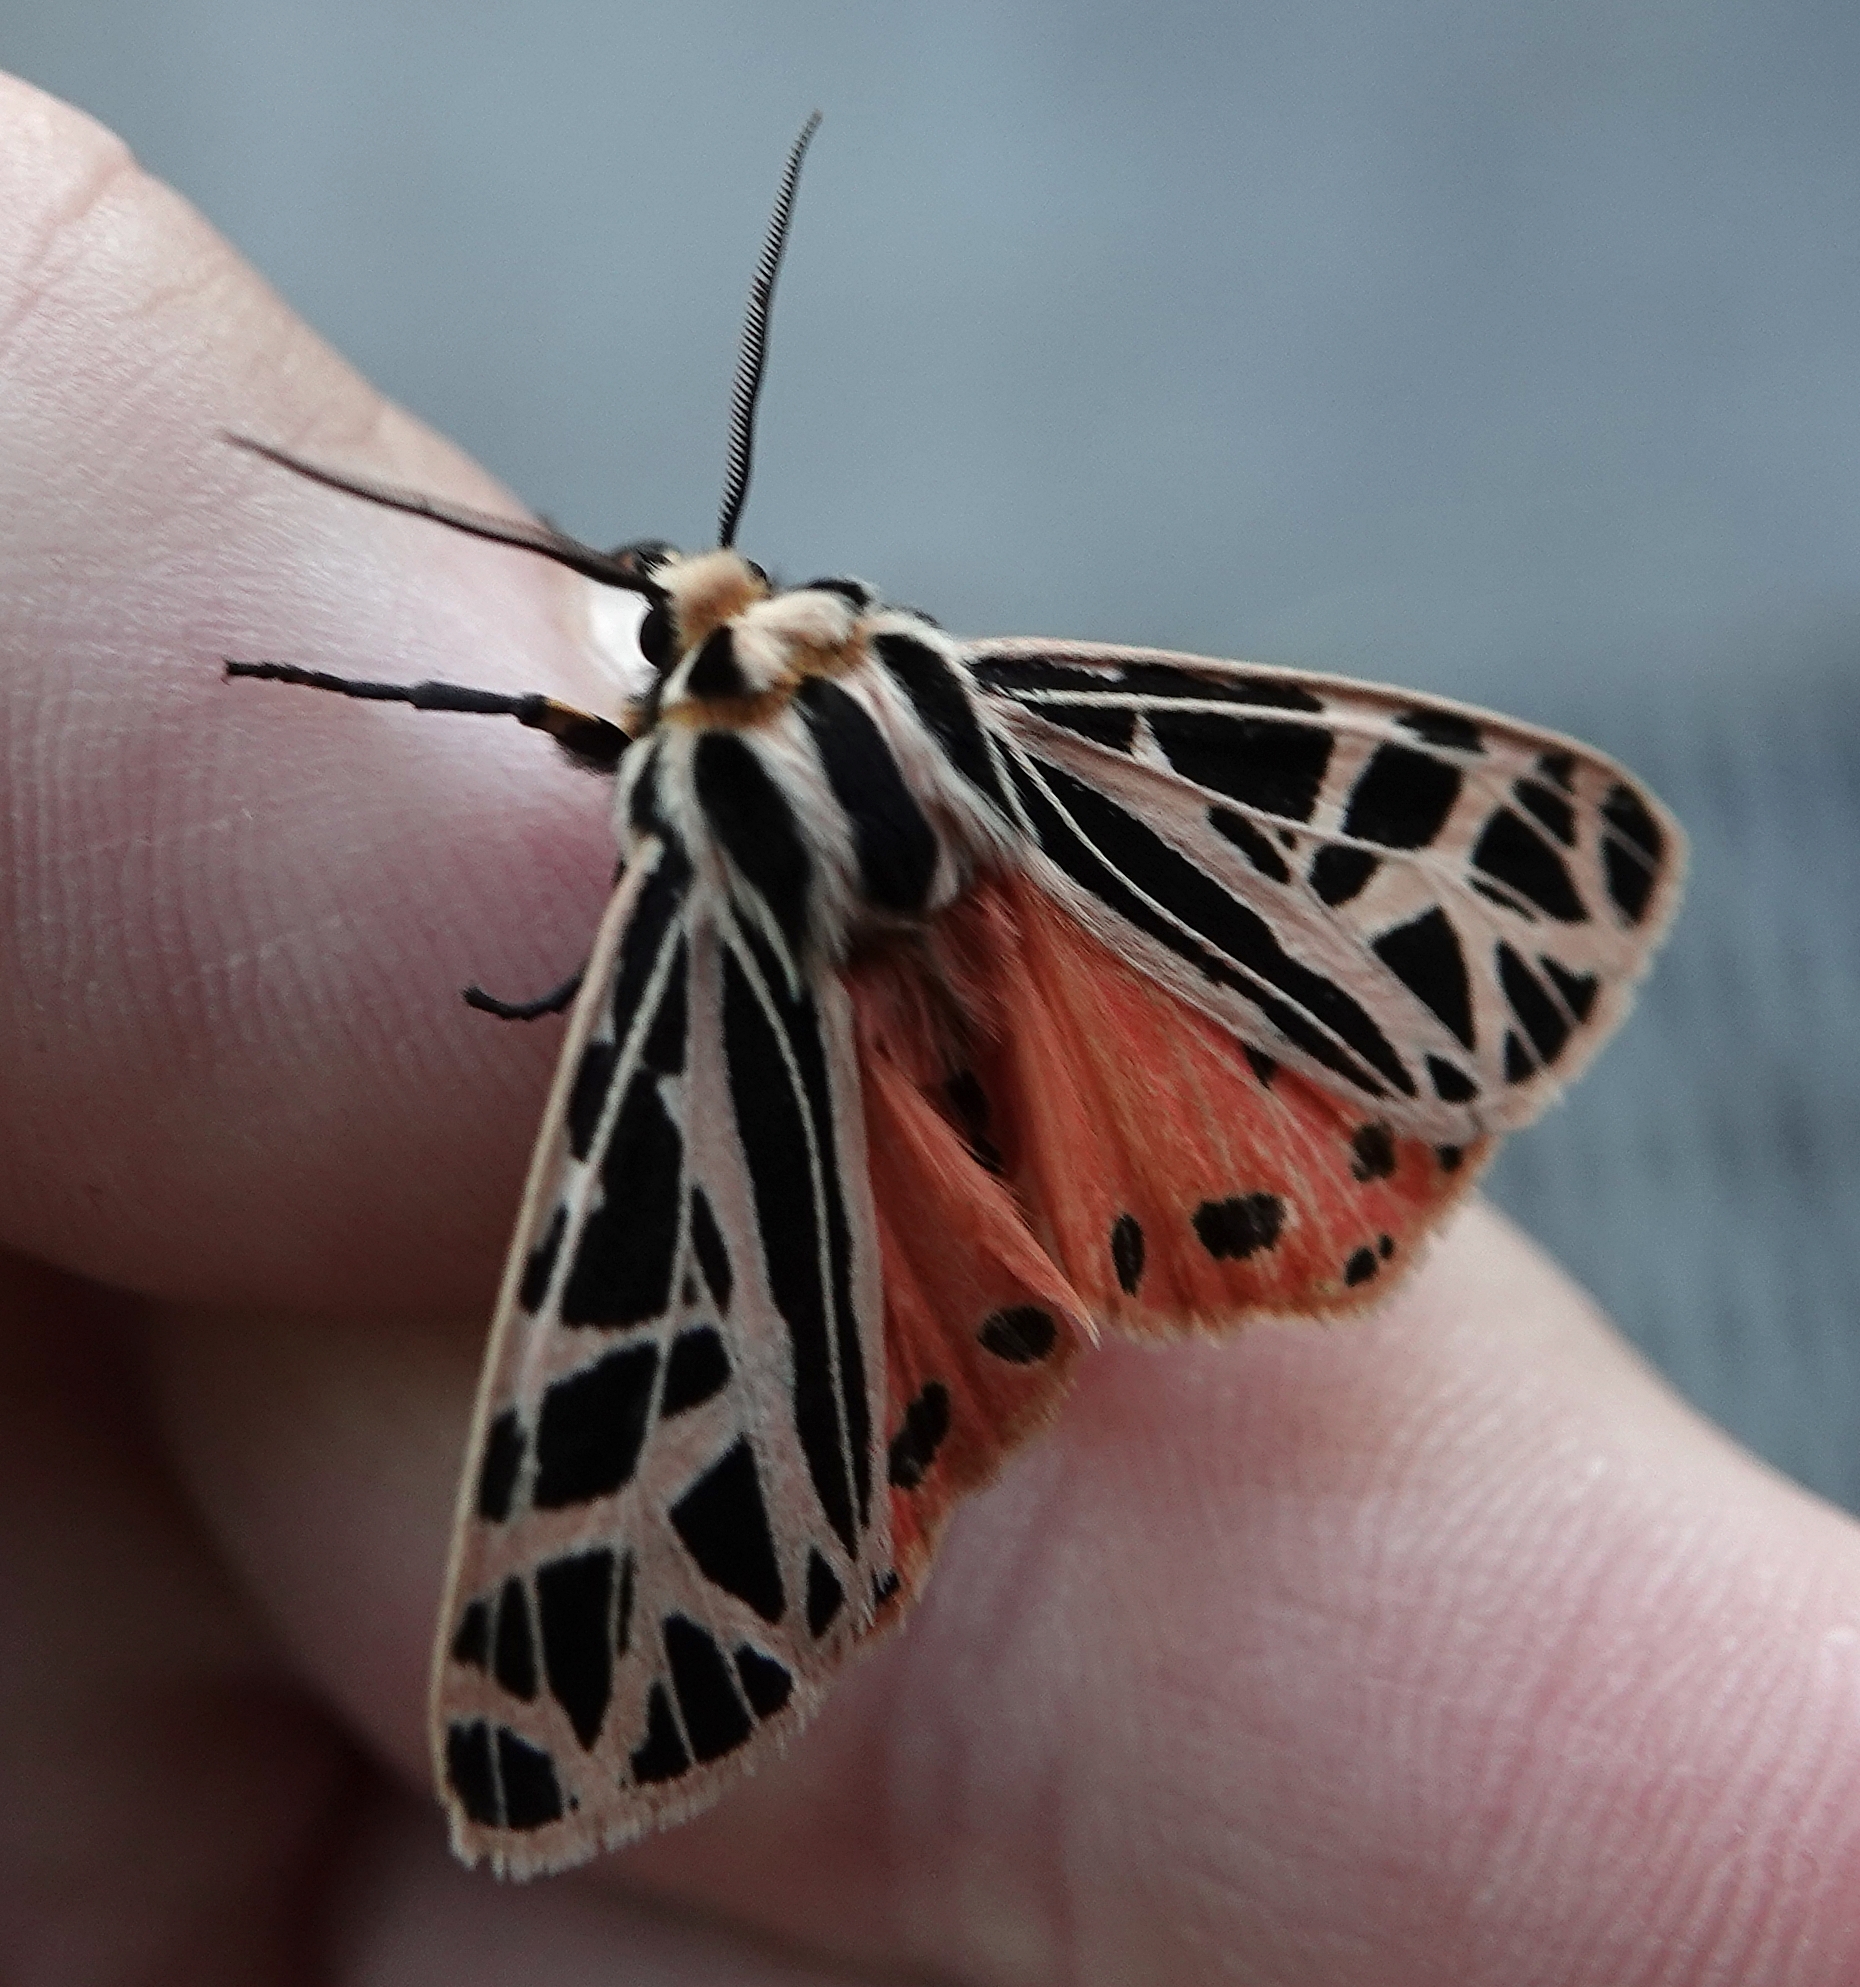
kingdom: Animalia
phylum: Arthropoda
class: Insecta
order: Lepidoptera
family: Erebidae
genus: Grammia
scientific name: Grammia parthenice
